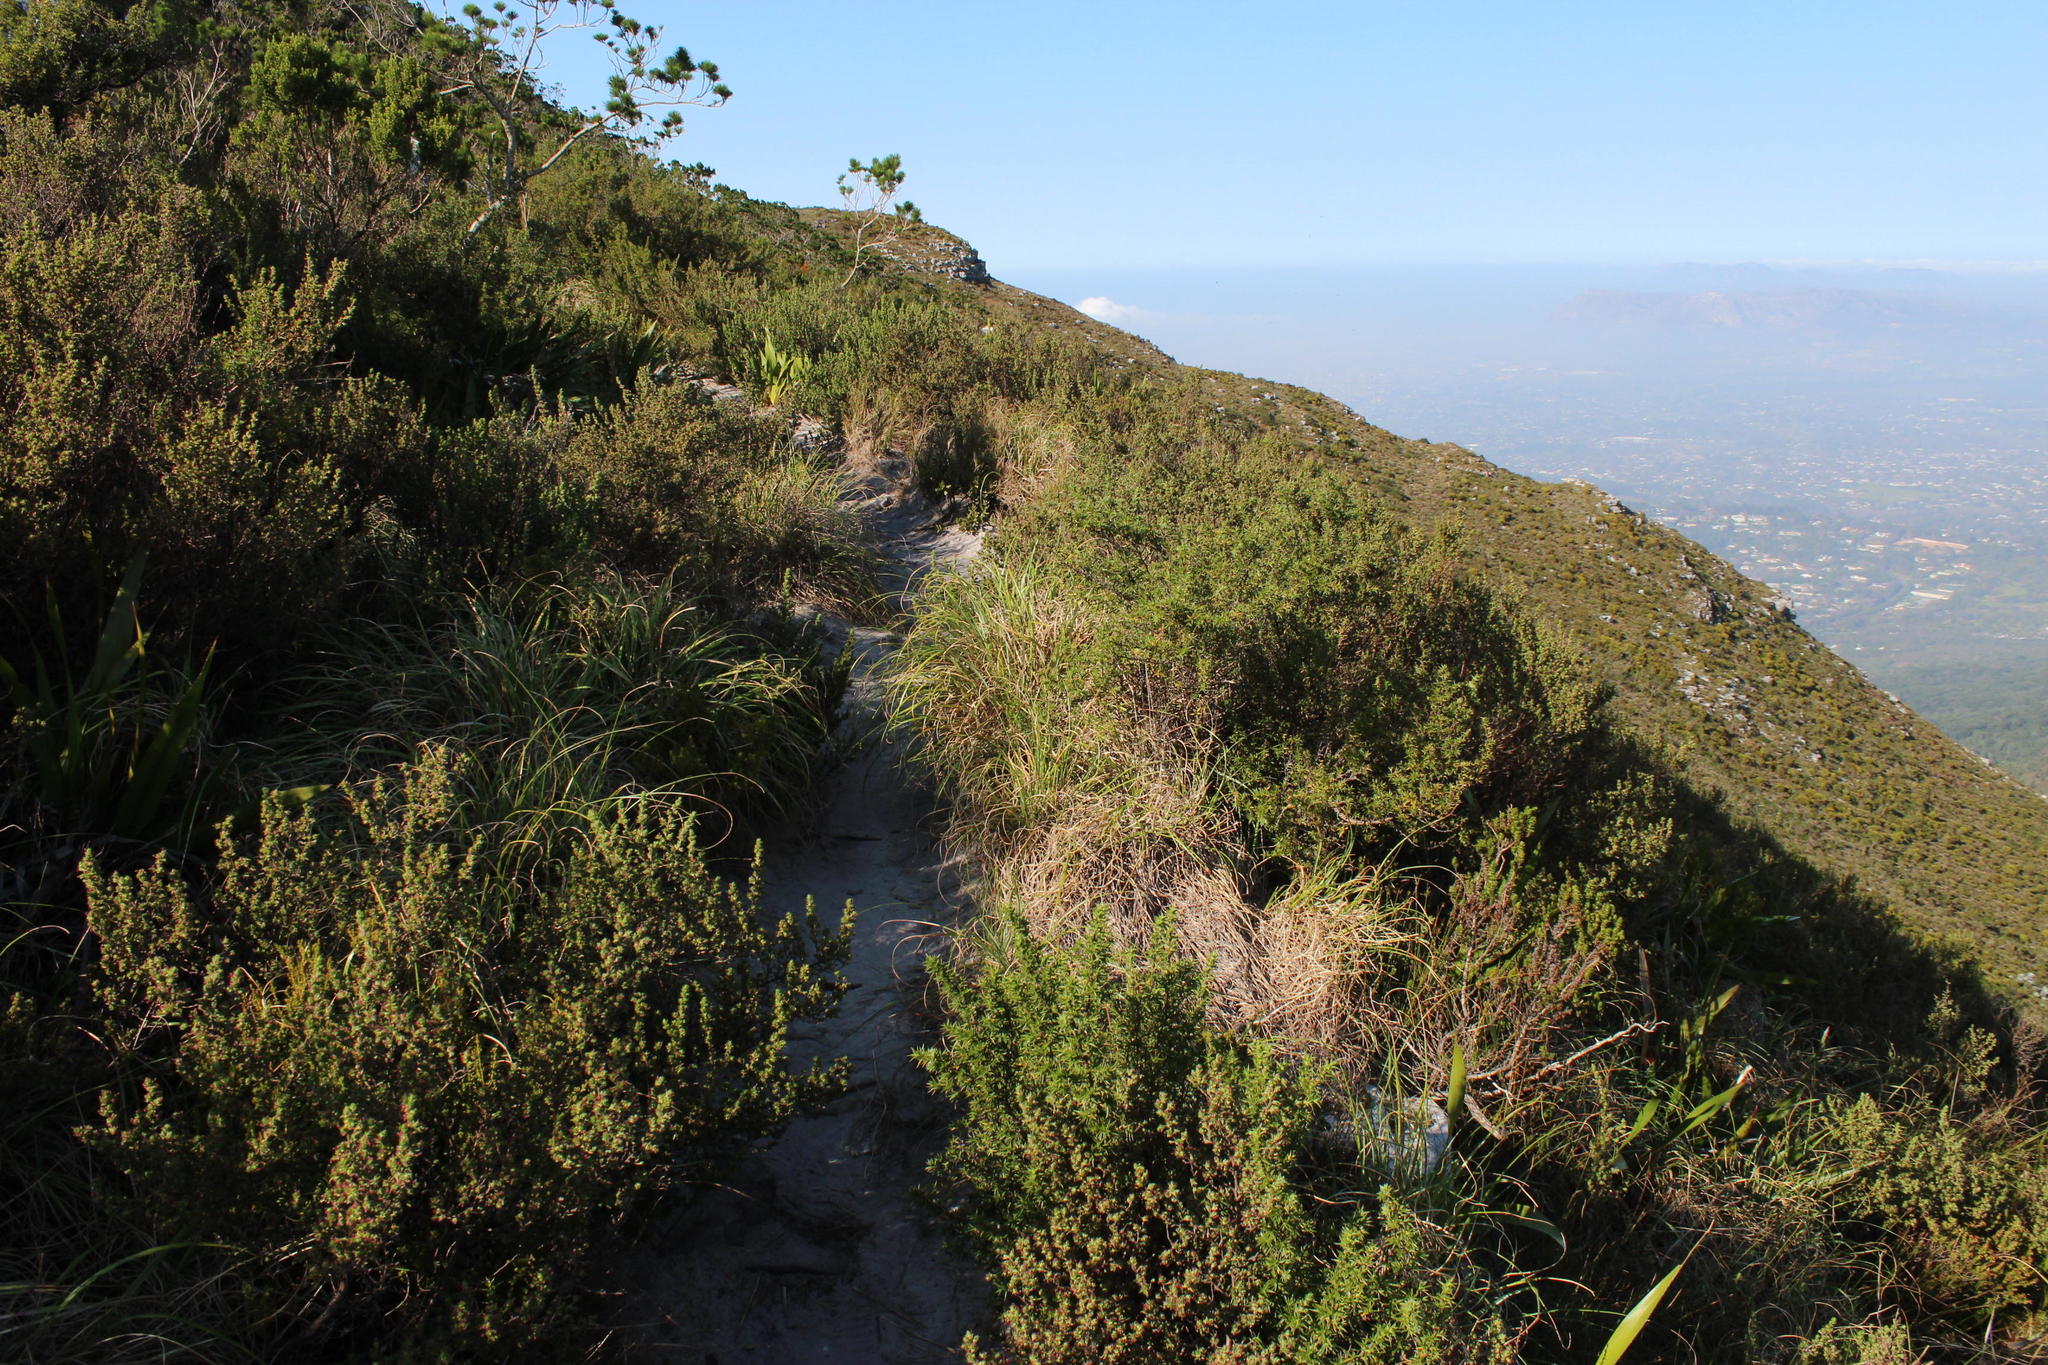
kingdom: Plantae
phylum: Tracheophyta
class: Magnoliopsida
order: Rosales
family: Rosaceae
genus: Cliffortia
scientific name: Cliffortia polygonifolia
